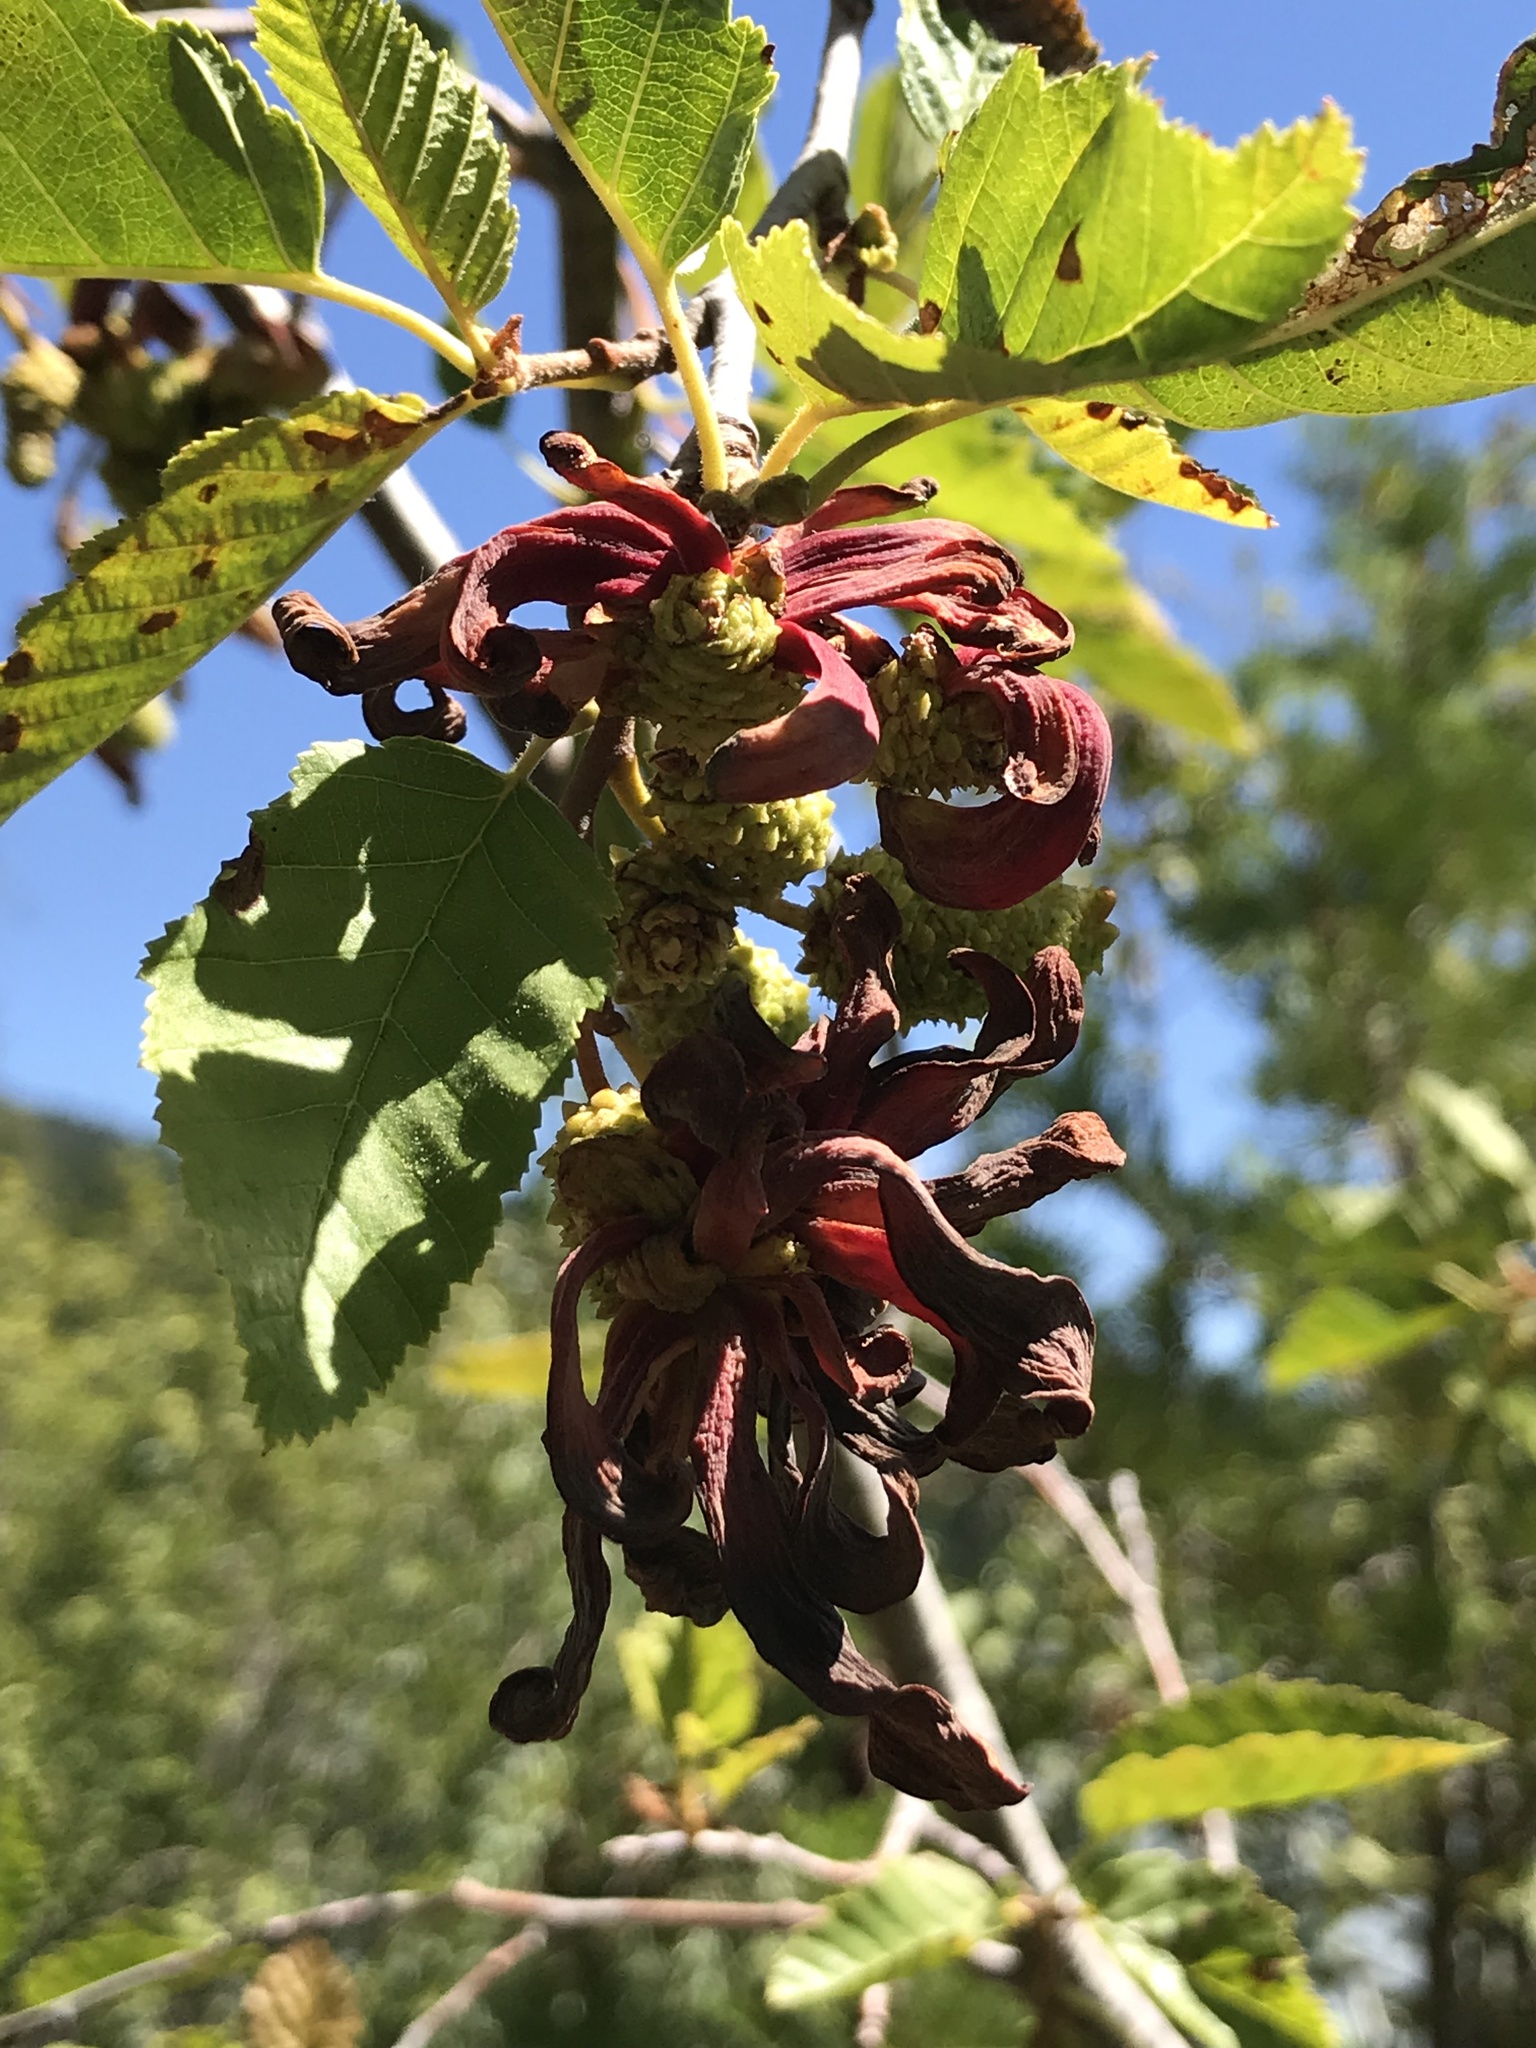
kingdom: Fungi
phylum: Ascomycota
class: Taphrinomycetes
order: Taphrinales
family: Taphrinaceae
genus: Taphrina
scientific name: Taphrina occidentalis
